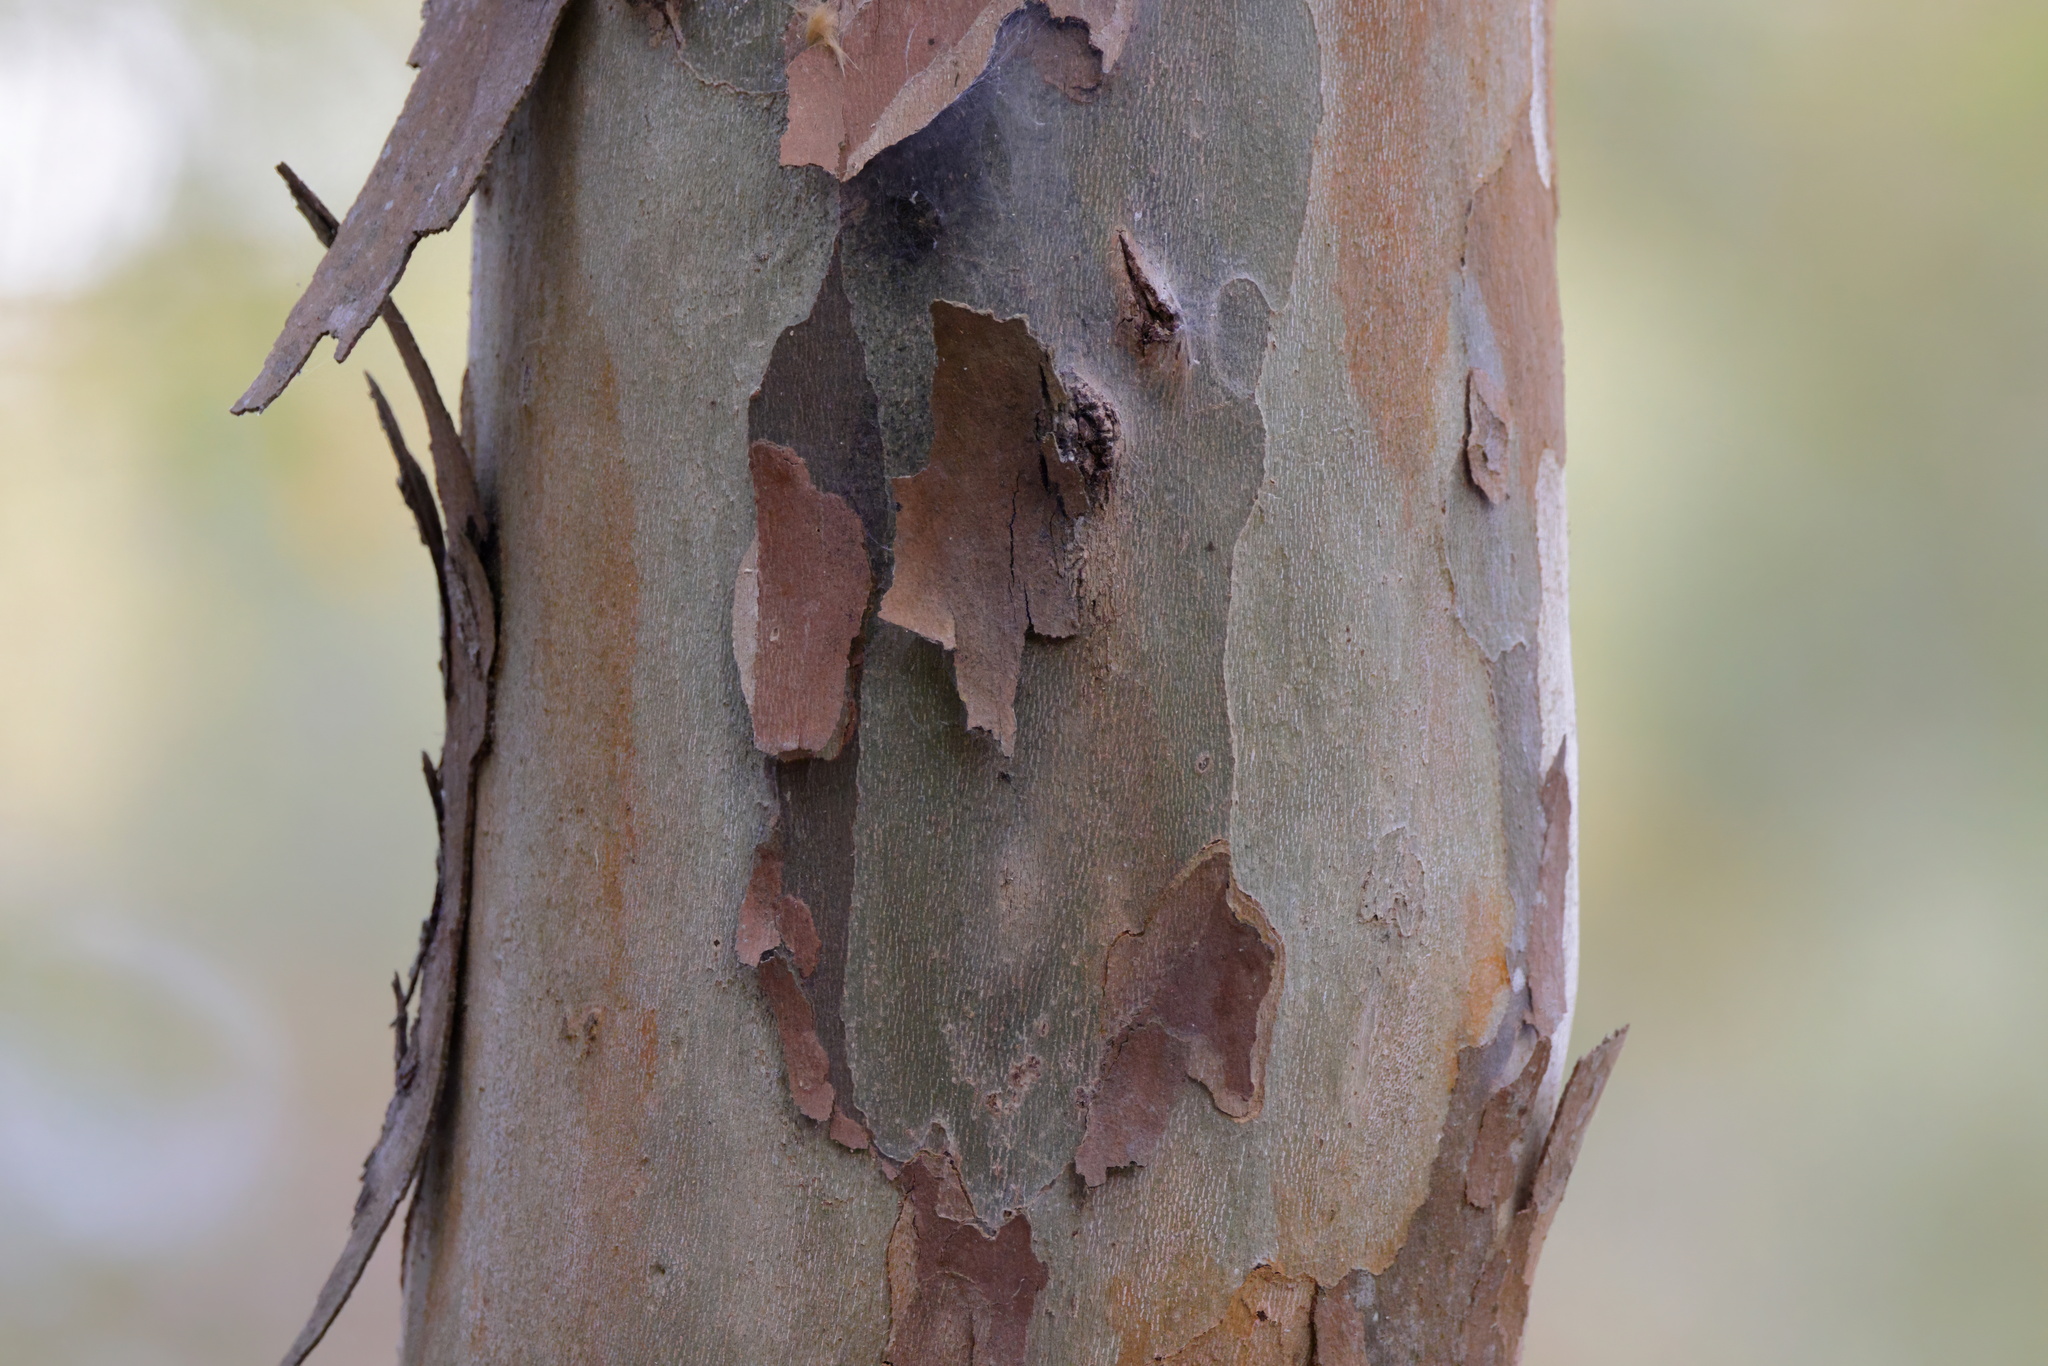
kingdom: Plantae
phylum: Tracheophyta
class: Magnoliopsida
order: Proteales
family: Platanaceae
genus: Platanus
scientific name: Platanus occidentalis
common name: American sycamore
